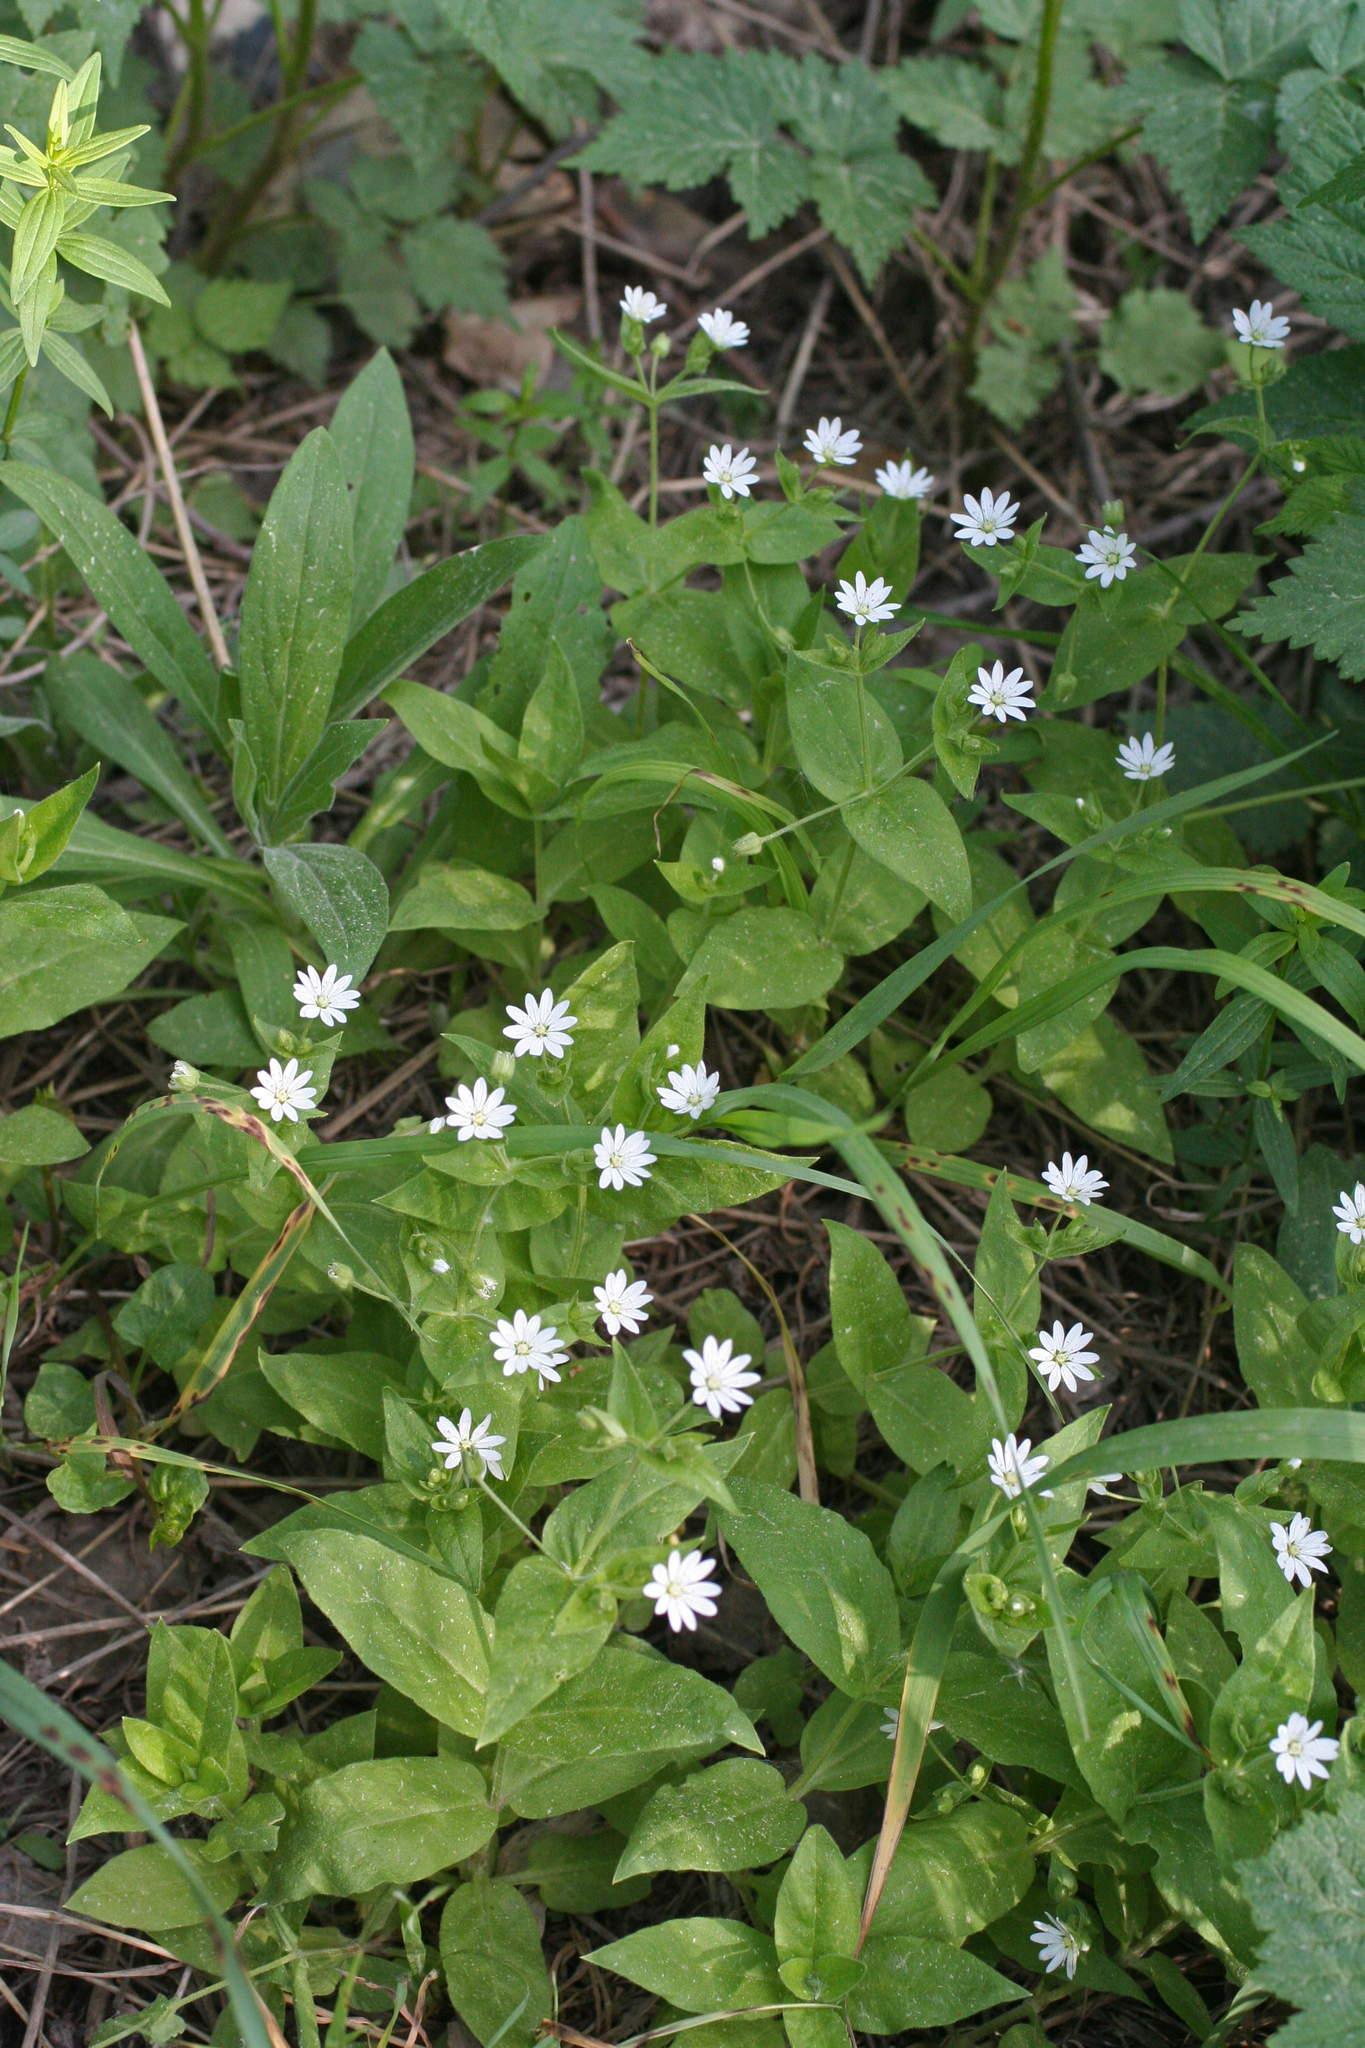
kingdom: Plantae
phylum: Tracheophyta
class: Magnoliopsida
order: Caryophyllales
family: Caryophyllaceae
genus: Stellaria
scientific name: Stellaria bungeana
